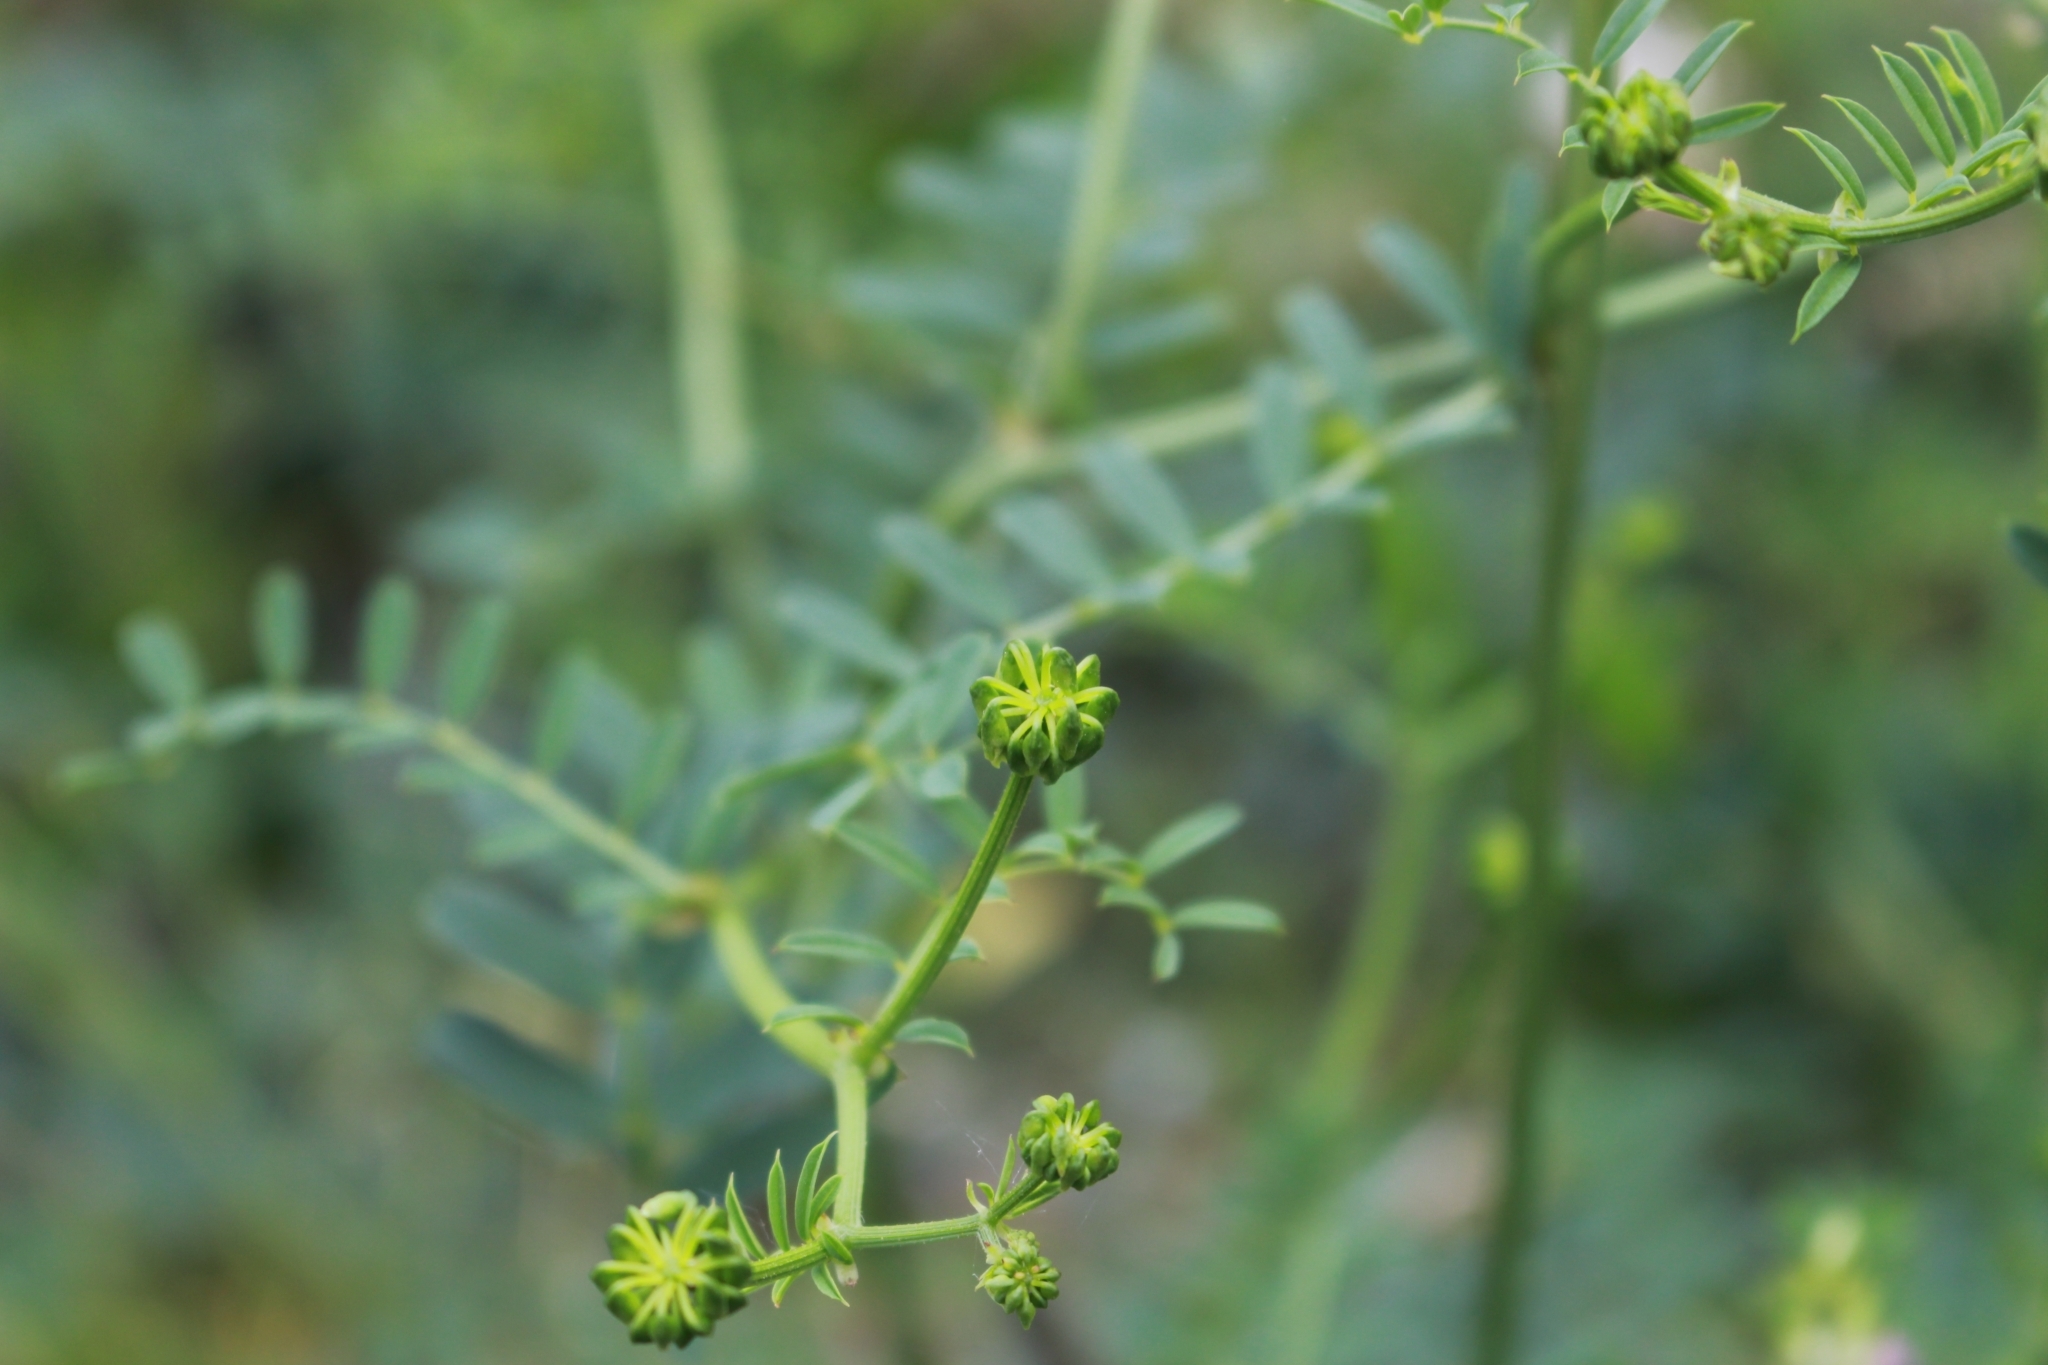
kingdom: Plantae
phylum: Tracheophyta
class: Magnoliopsida
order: Fabales
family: Fabaceae
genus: Coronilla
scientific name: Coronilla varia
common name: Crownvetch
